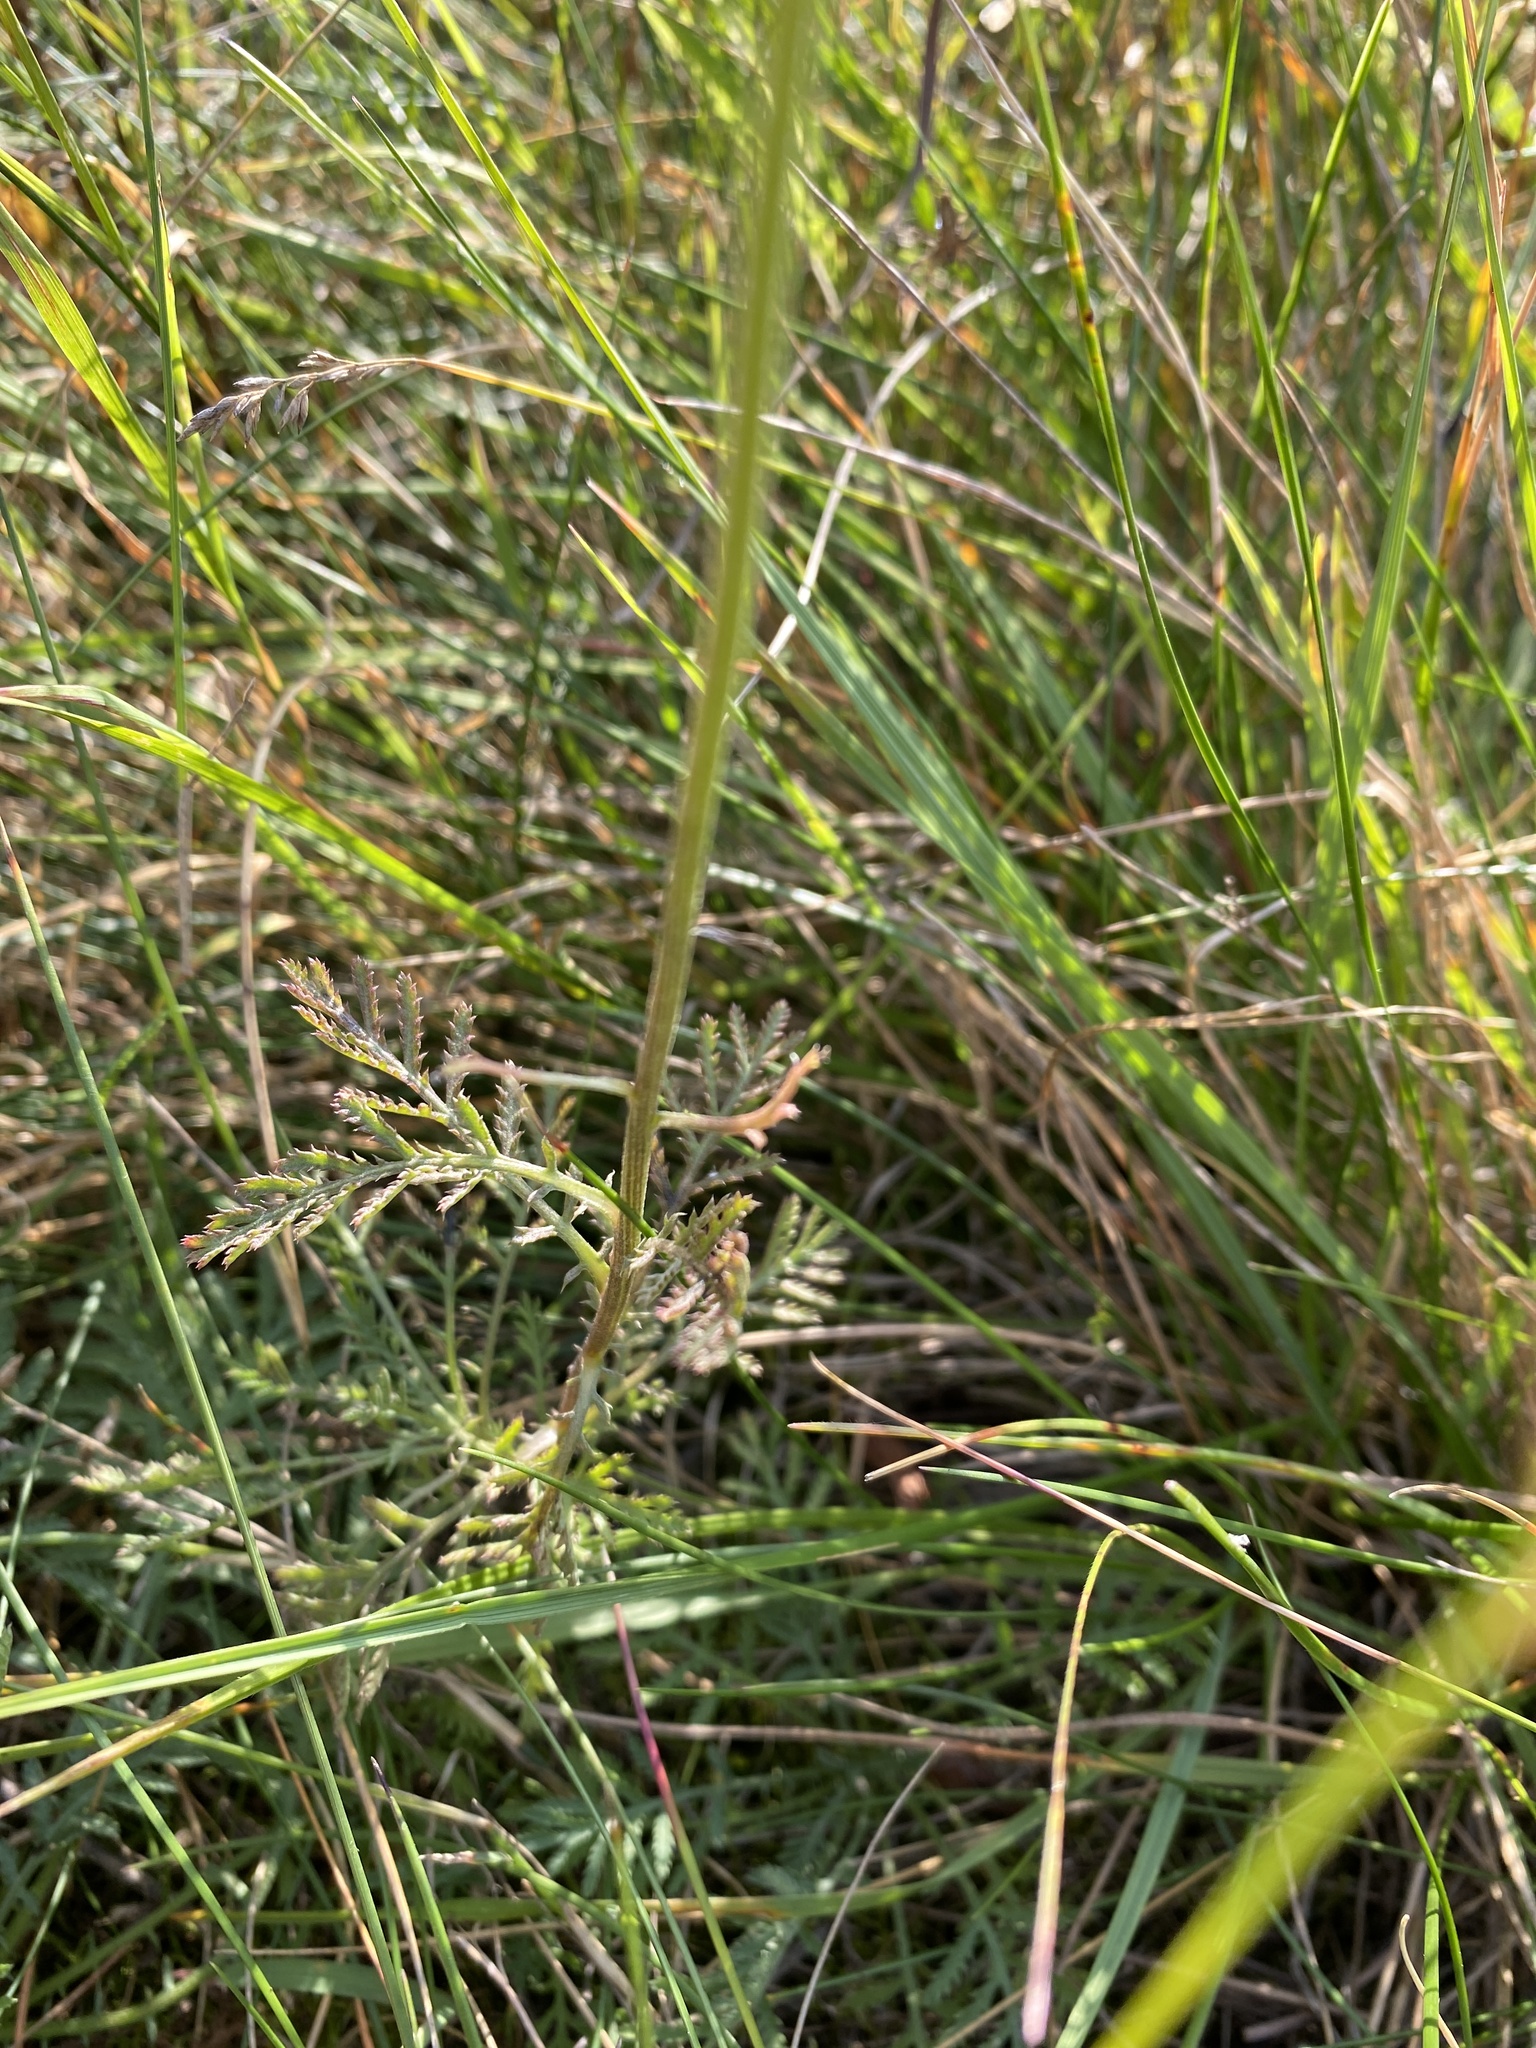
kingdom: Plantae
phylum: Tracheophyta
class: Magnoliopsida
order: Asterales
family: Asteraceae
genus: Cota
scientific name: Cota tinctoria
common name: Golden chamomile
